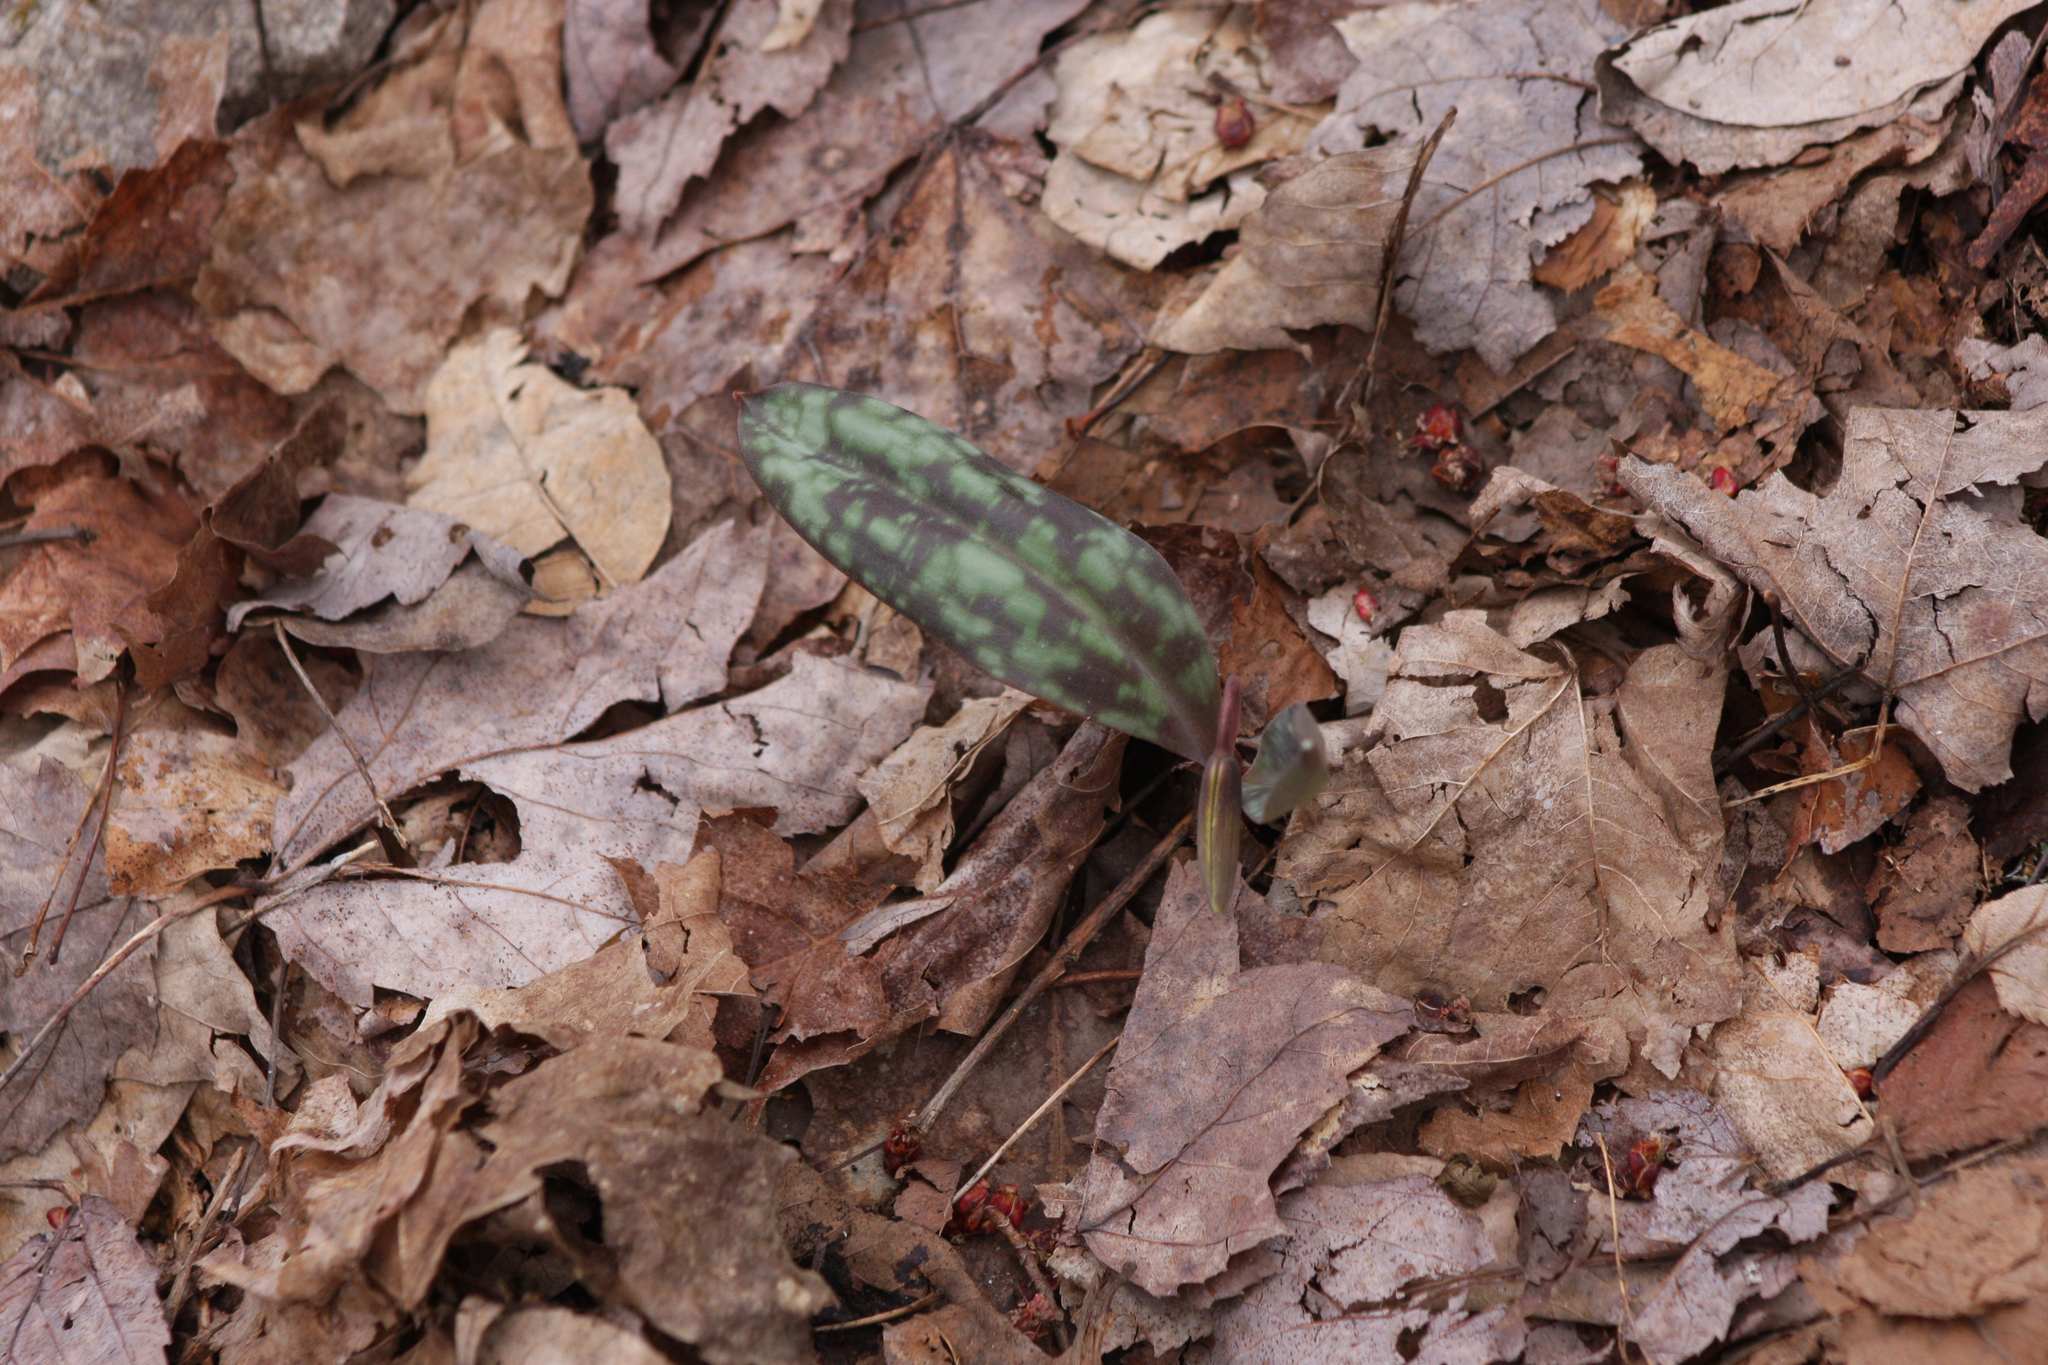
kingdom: Plantae
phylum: Tracheophyta
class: Liliopsida
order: Liliales
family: Liliaceae
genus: Erythronium
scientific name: Erythronium americanum
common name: Yellow adder's-tongue
